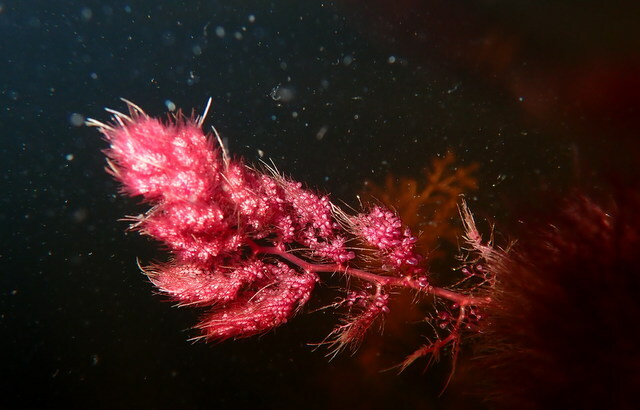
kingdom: Plantae
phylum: Tracheophyta
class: Magnoliopsida
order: Lamiales
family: Lentibulariaceae
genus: Utricularia
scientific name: Utricularia foliosa
